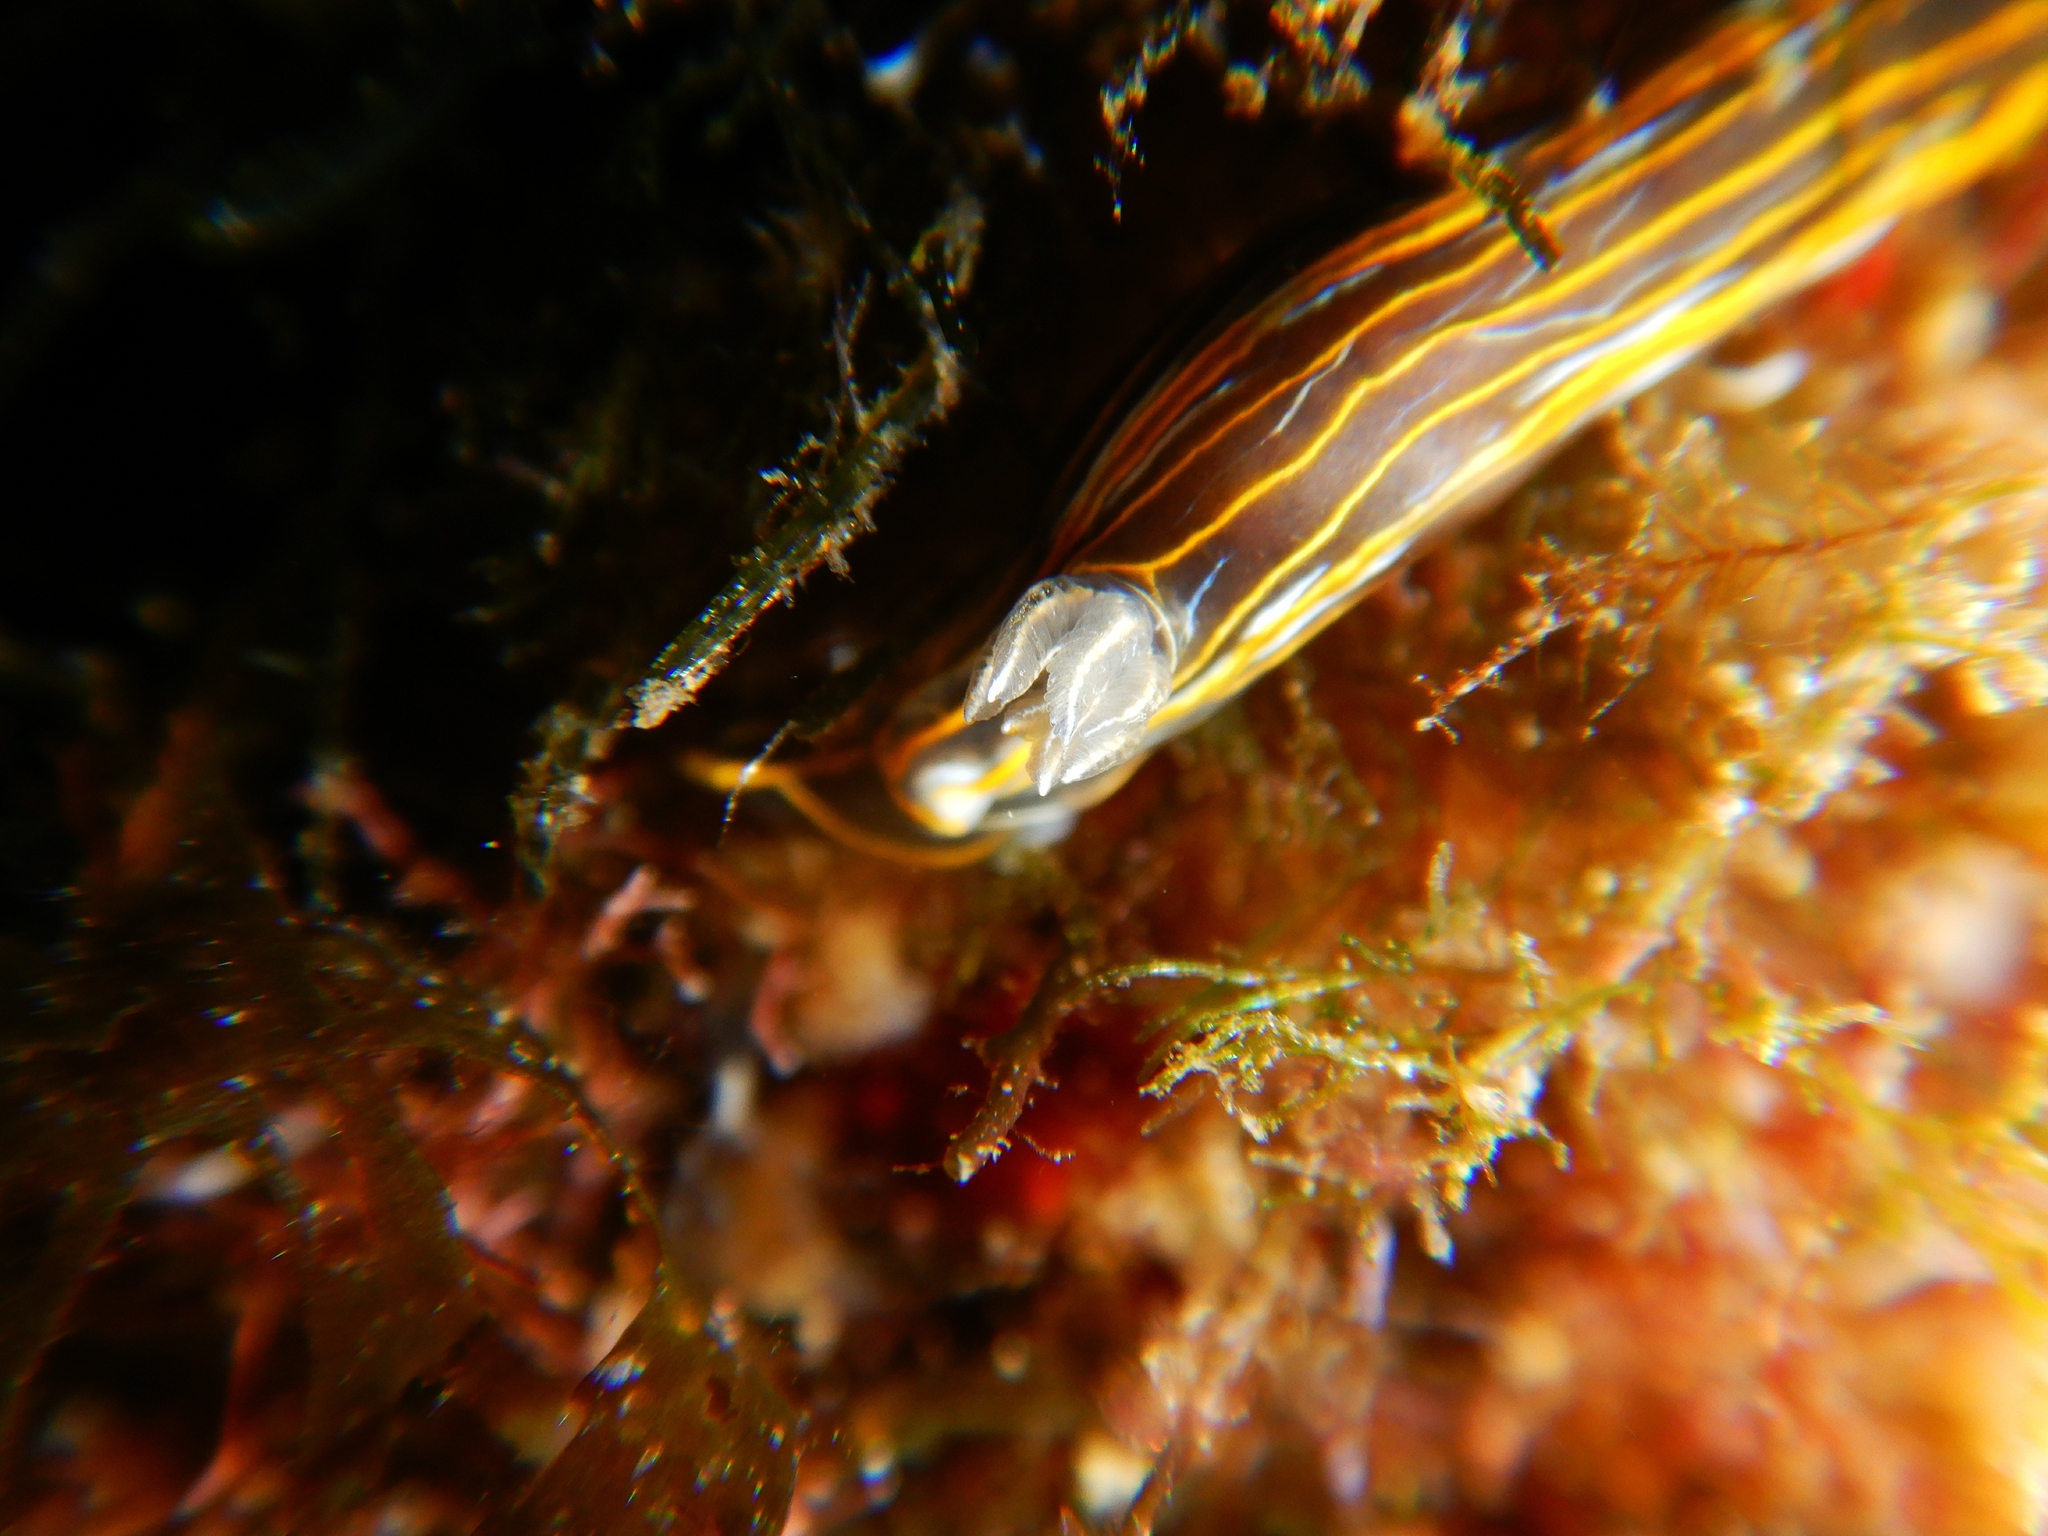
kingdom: Animalia
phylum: Mollusca
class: Gastropoda
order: Nudibranchia
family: Chromodorididae
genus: Felimare
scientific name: Felimare villafranca
